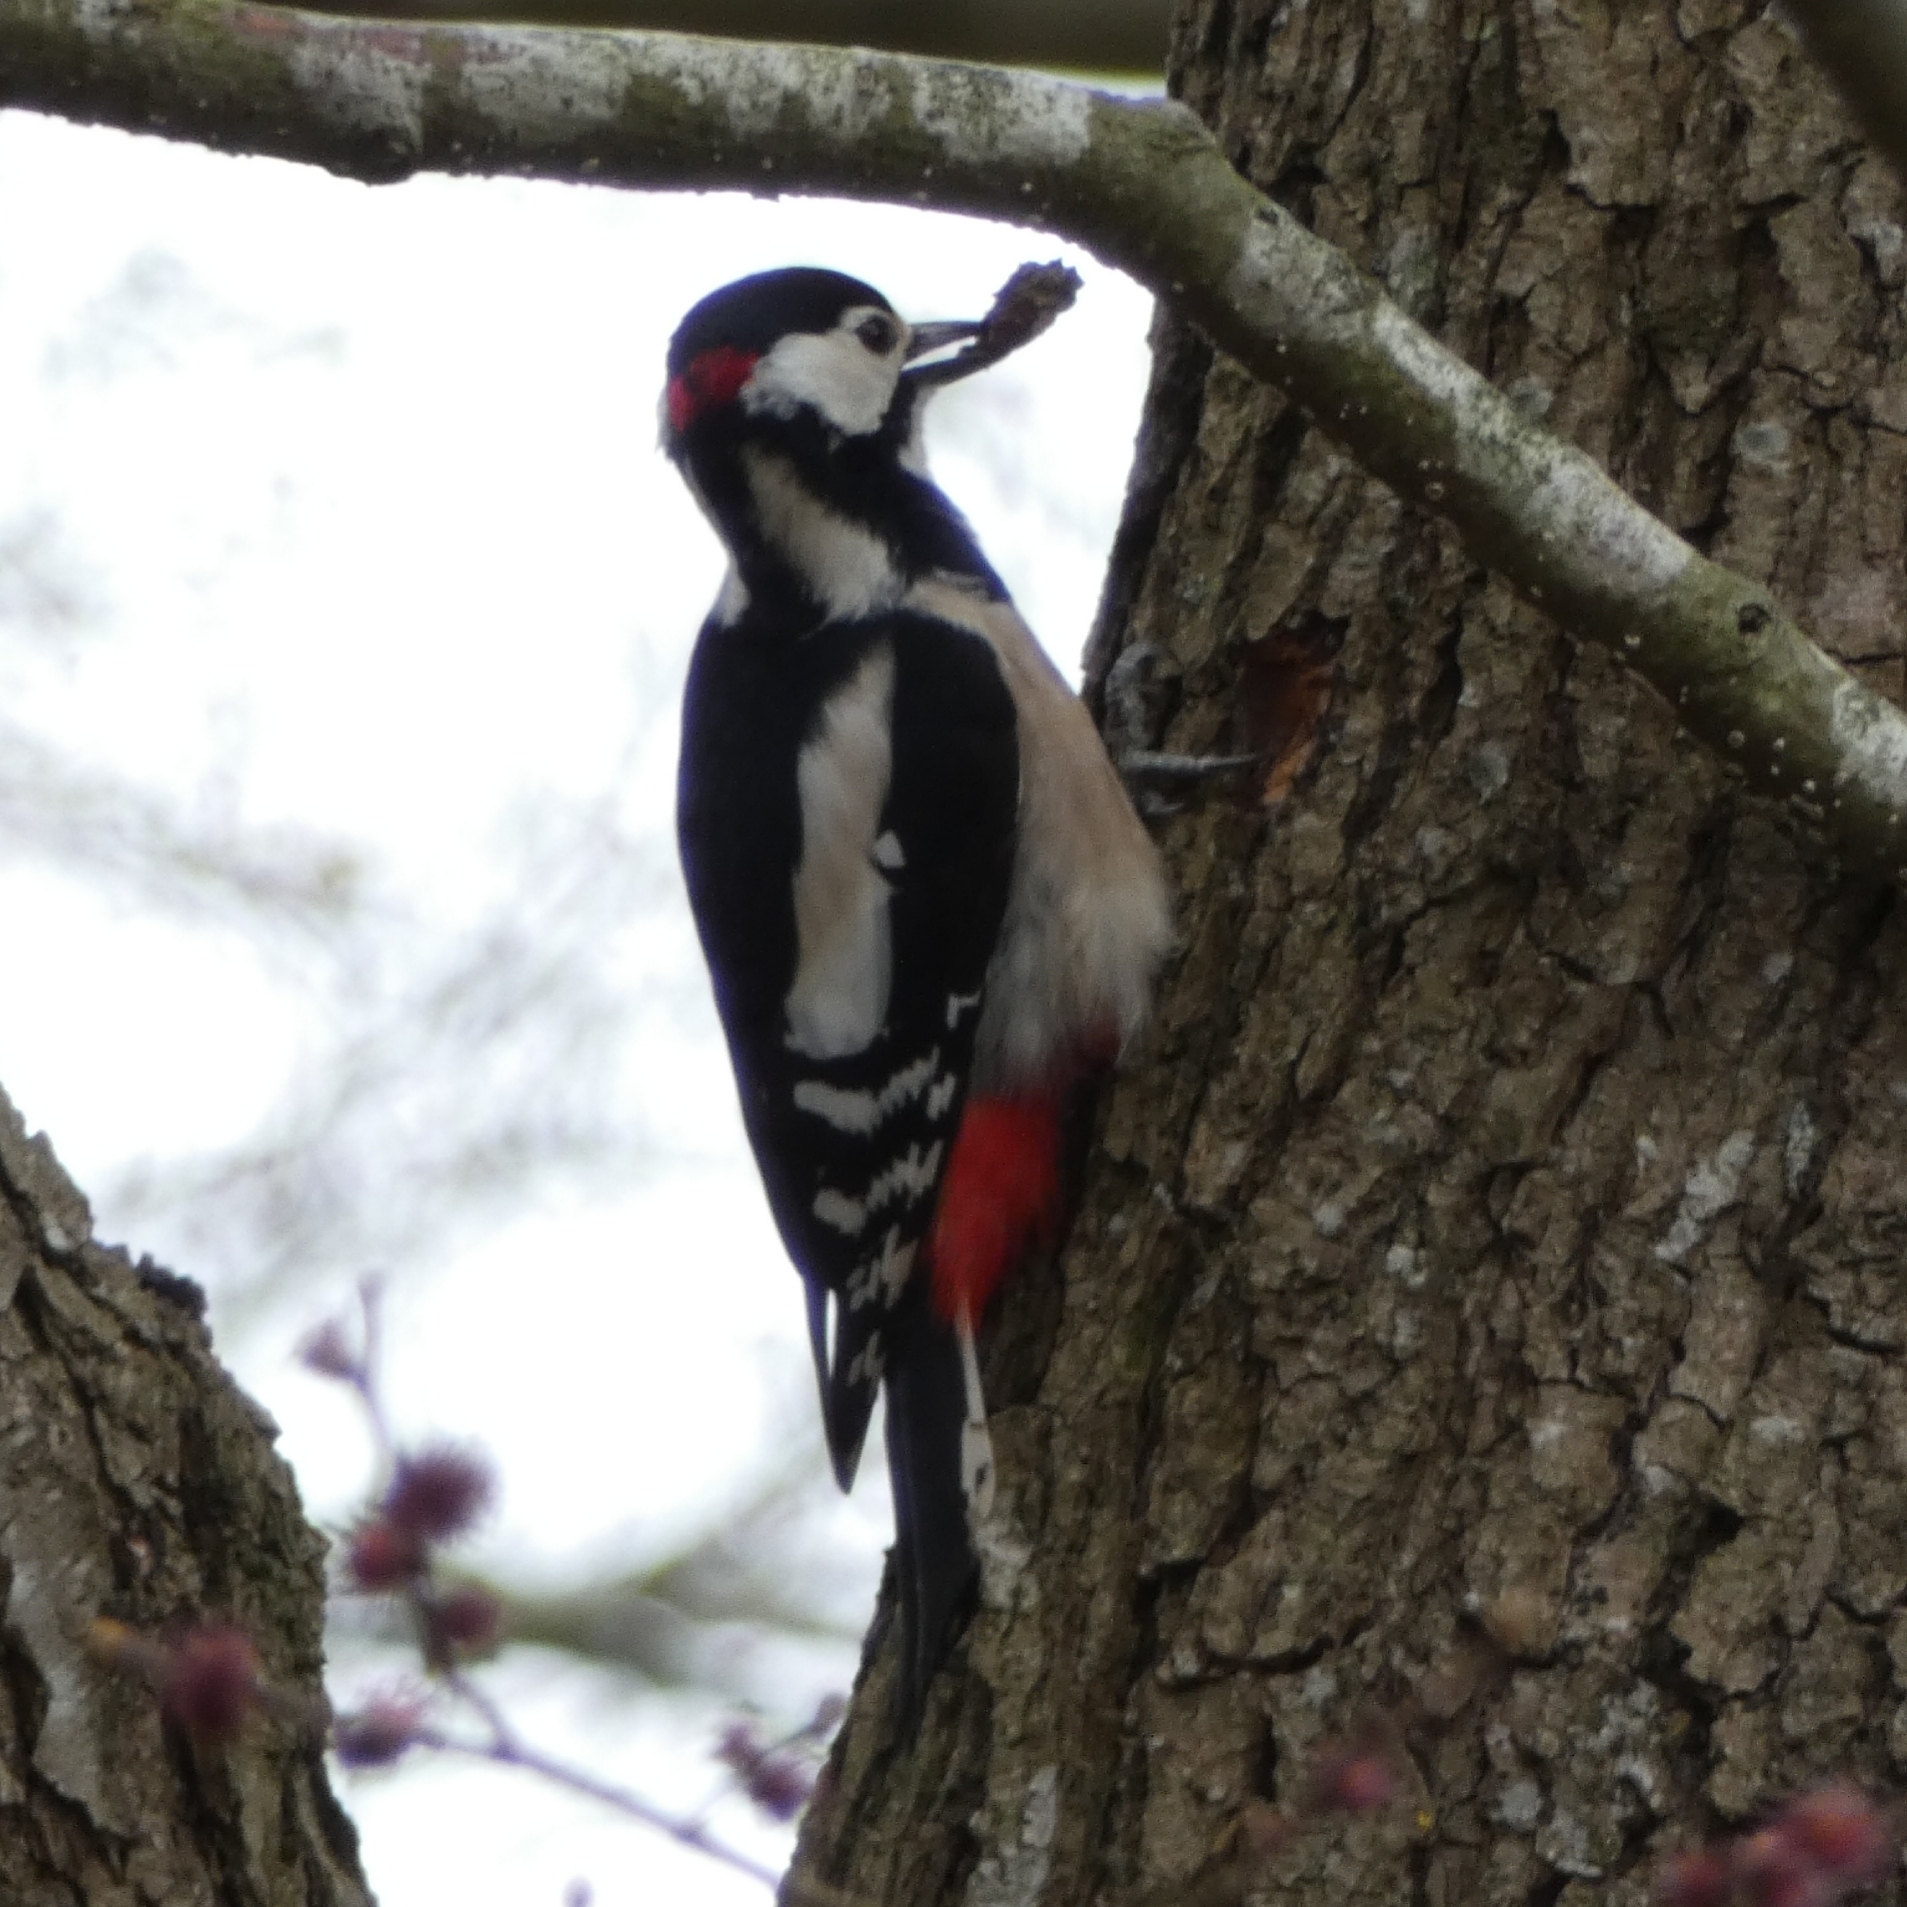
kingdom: Animalia
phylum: Chordata
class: Aves
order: Piciformes
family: Picidae
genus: Dendrocopos
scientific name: Dendrocopos major
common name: Great spotted woodpecker
